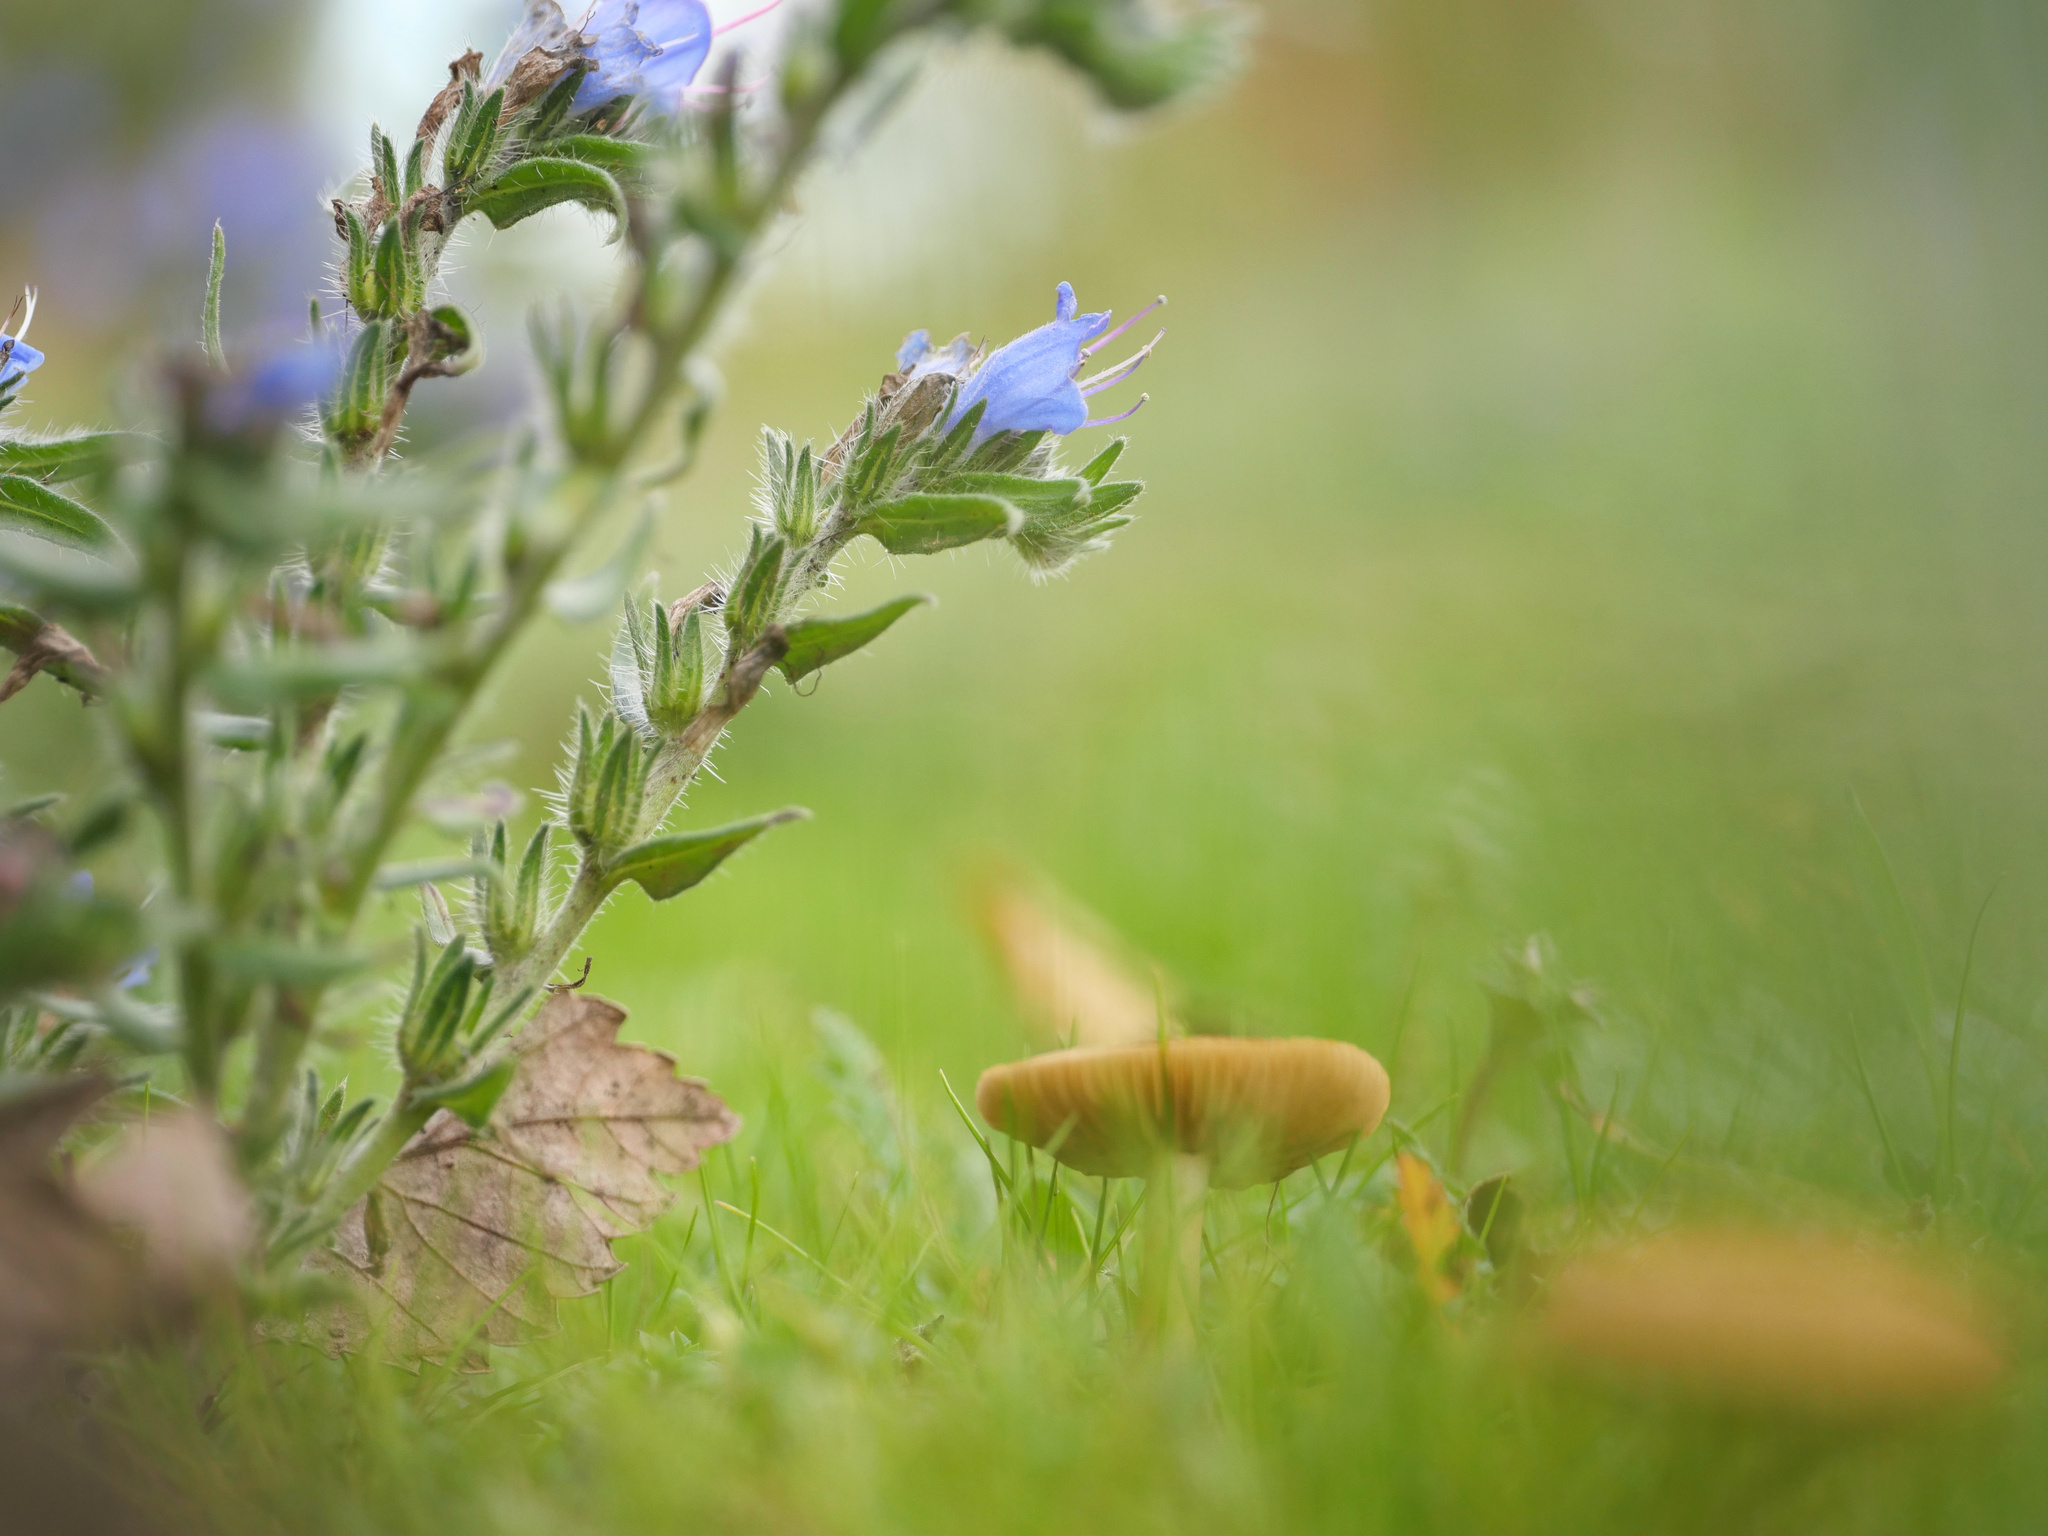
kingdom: Plantae
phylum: Tracheophyta
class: Magnoliopsida
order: Boraginales
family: Boraginaceae
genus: Echium
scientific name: Echium vulgare
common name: Common viper's bugloss
